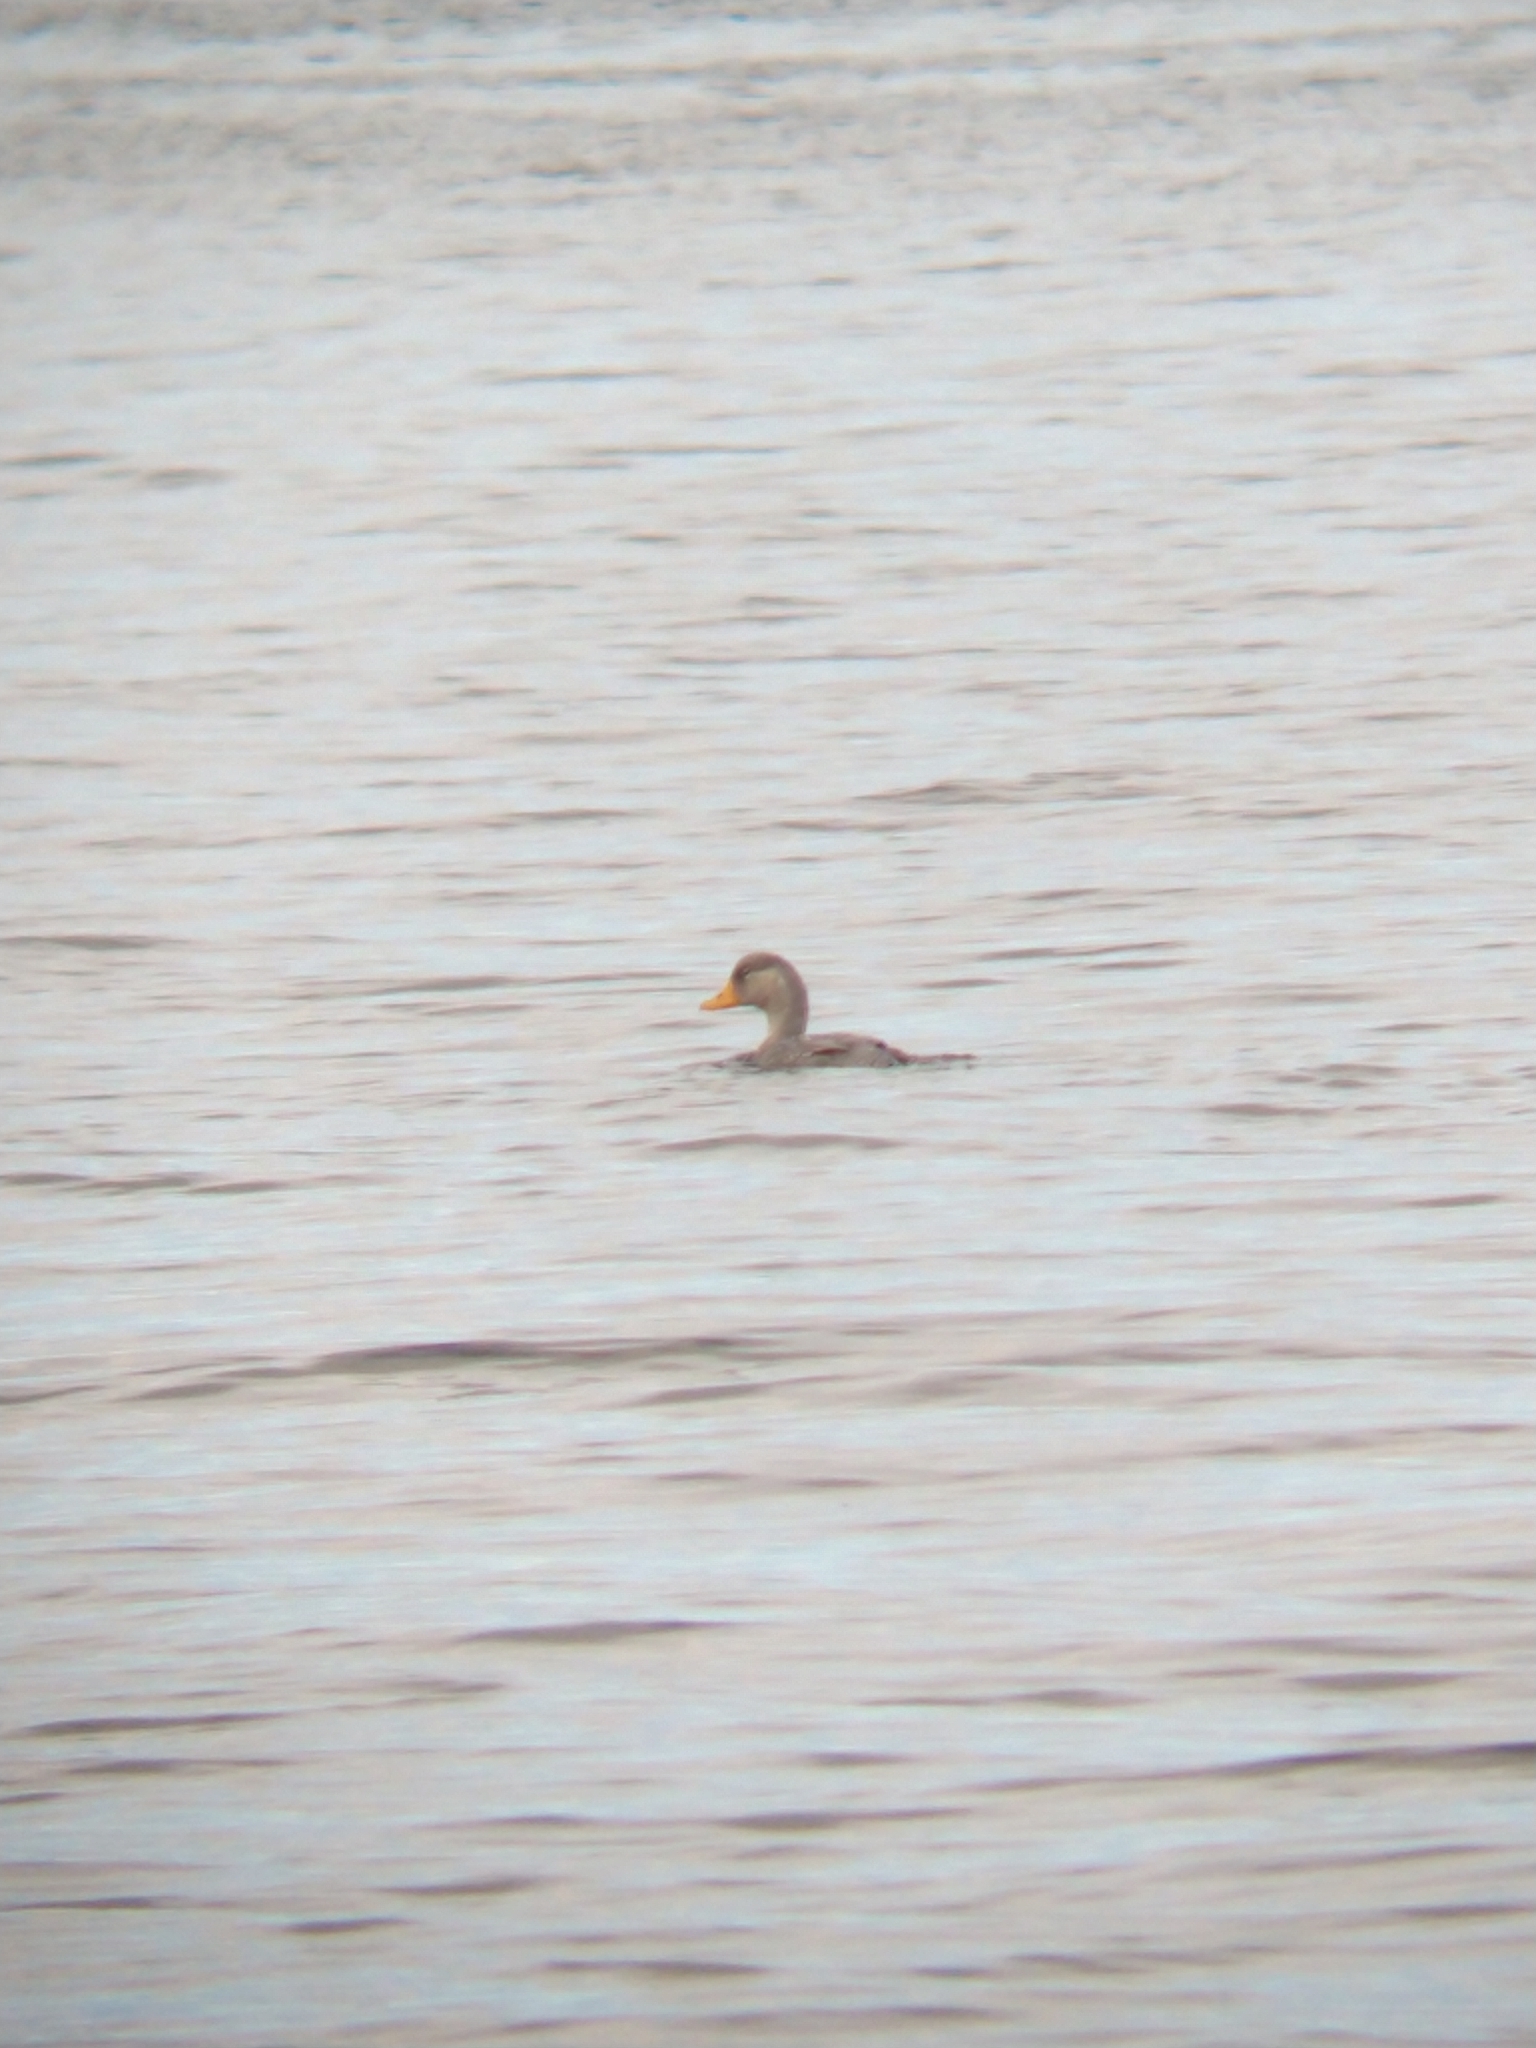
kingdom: Animalia
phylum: Chordata
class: Aves
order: Anseriformes
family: Anatidae
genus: Tachyeres
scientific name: Tachyeres pteneres
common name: Fuegian steamer duck
